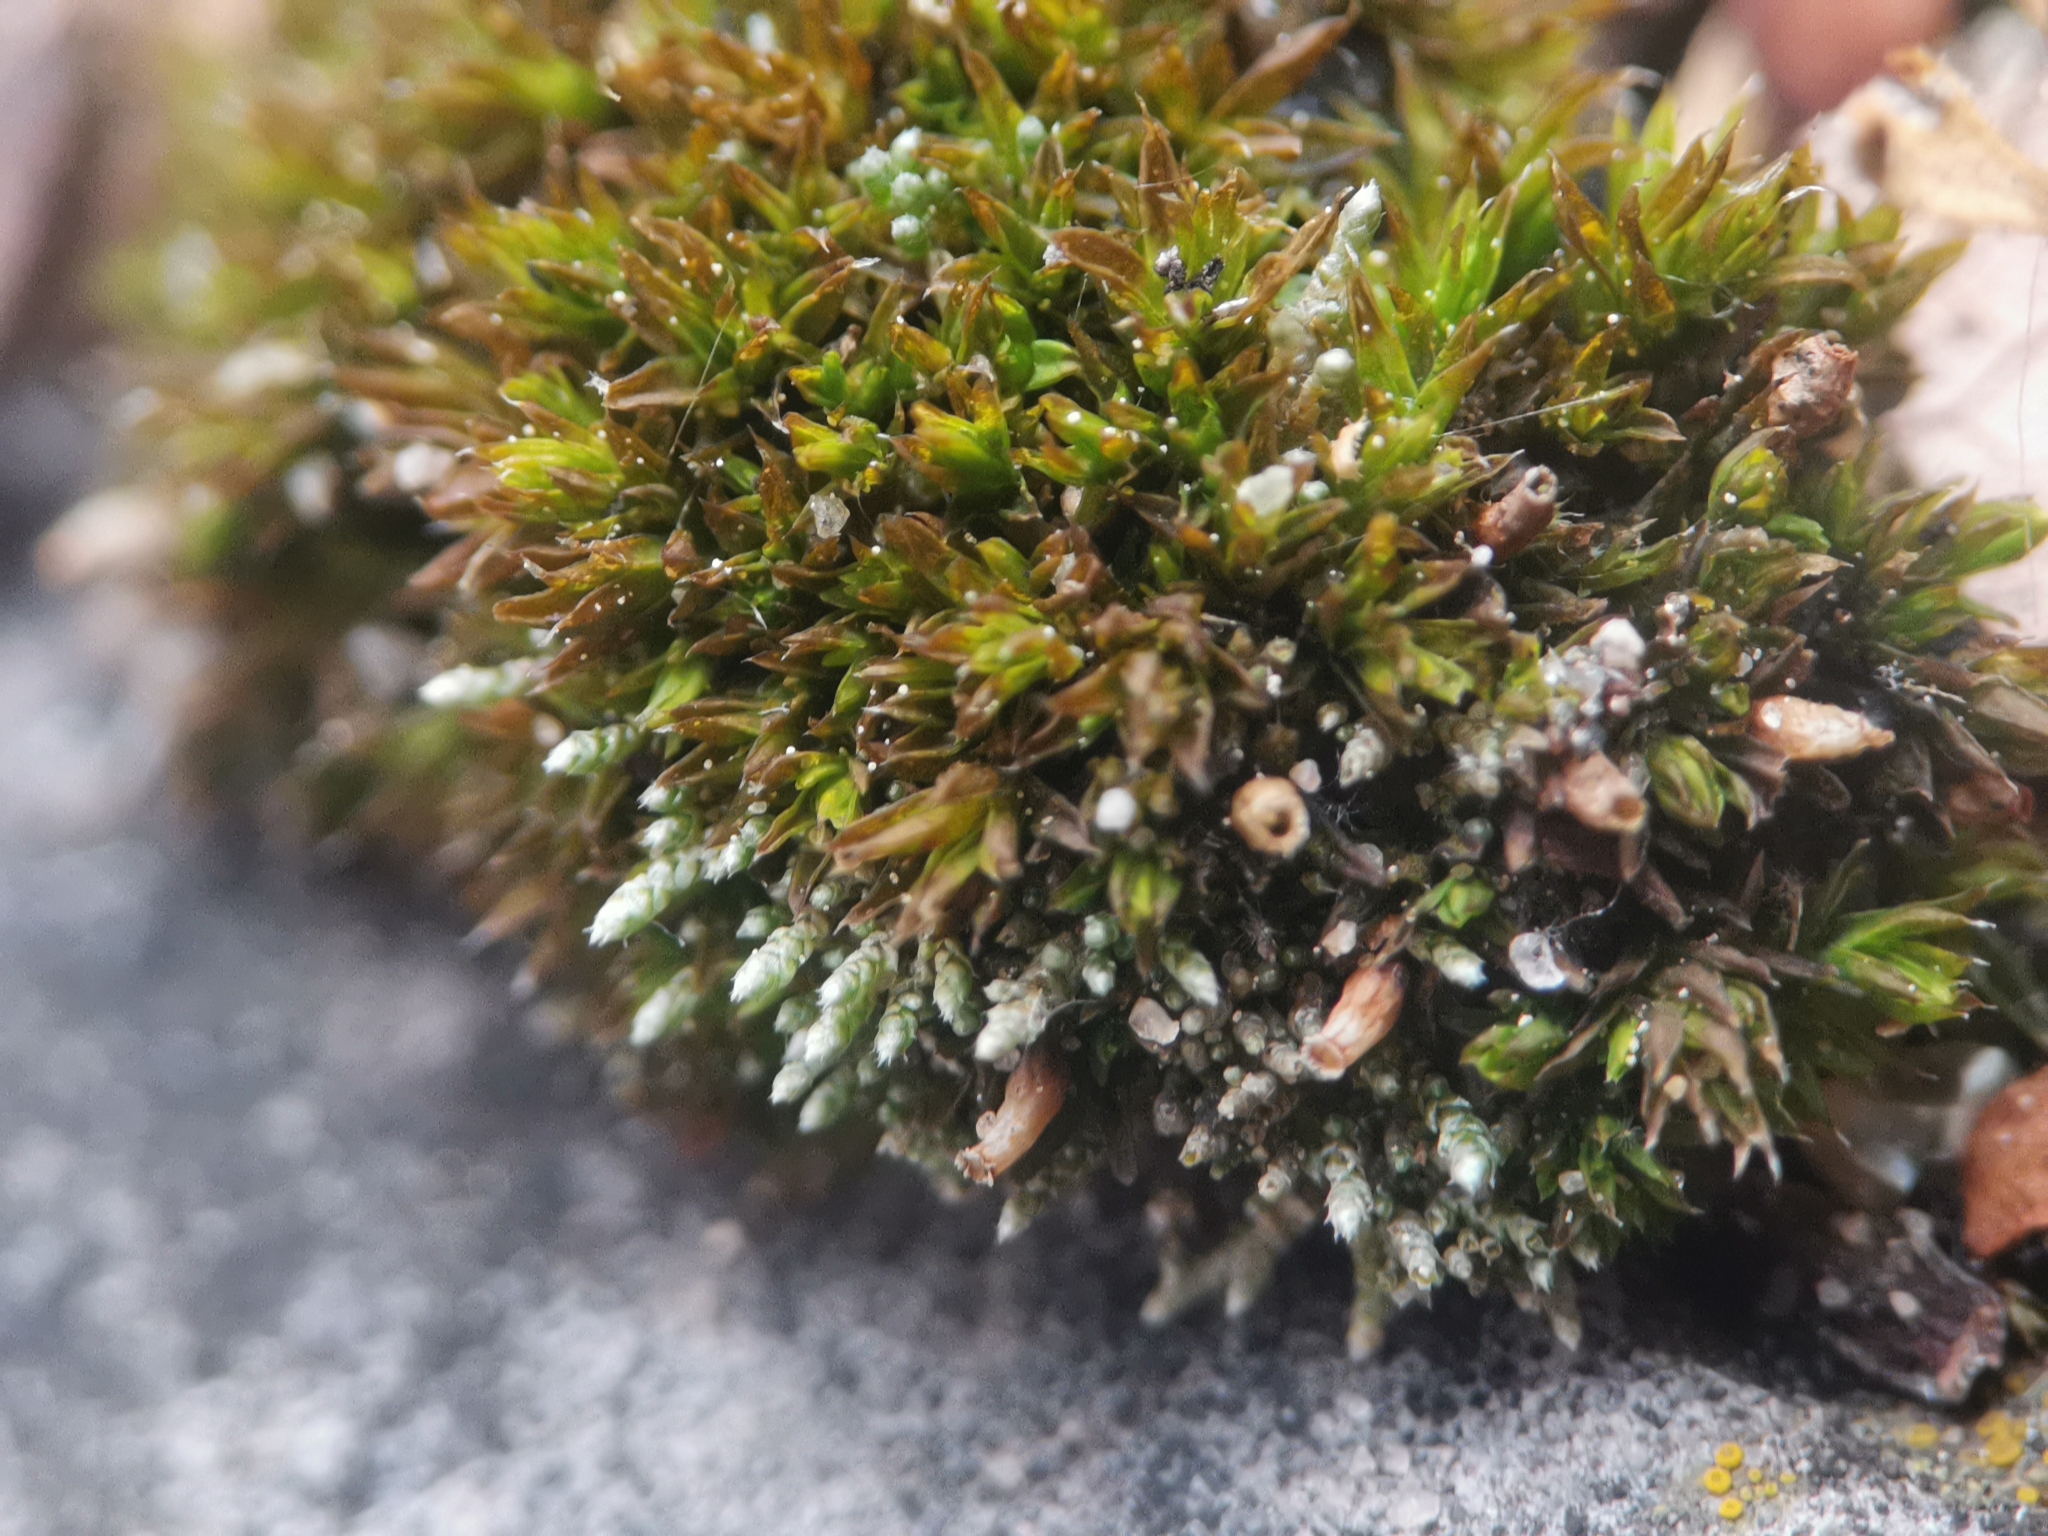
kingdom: Plantae
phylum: Bryophyta
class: Bryopsida
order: Bryales
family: Bryaceae
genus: Bryum
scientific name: Bryum argenteum
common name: Silver-moss
